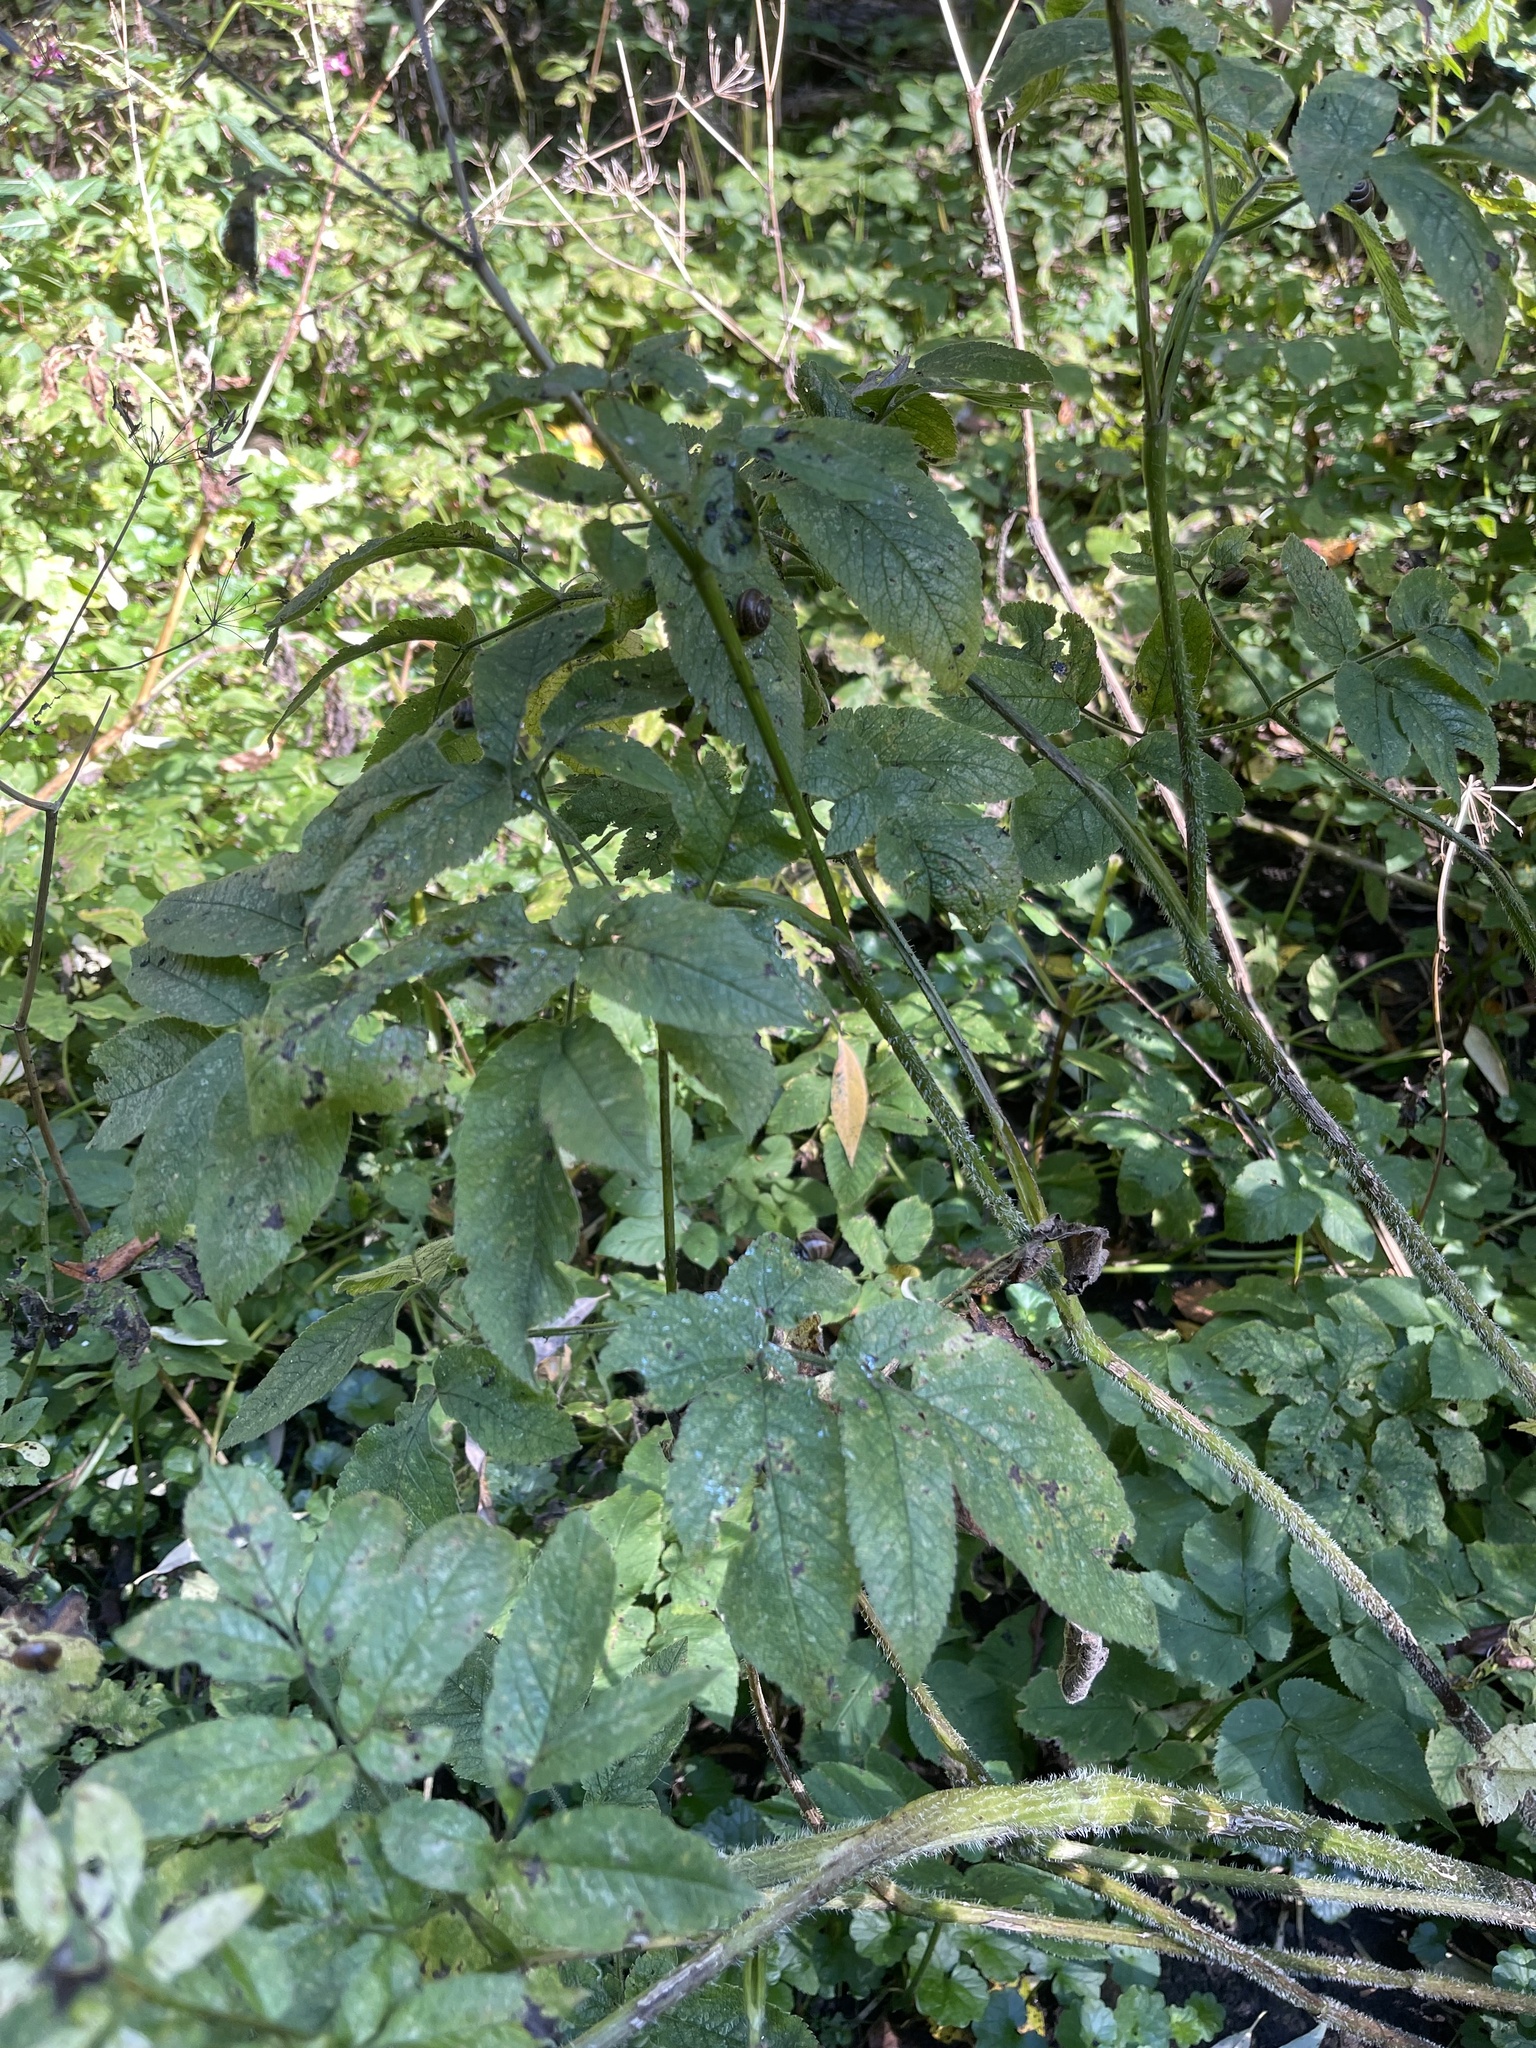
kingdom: Plantae
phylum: Tracheophyta
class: Magnoliopsida
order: Apiales
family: Apiaceae
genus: Chaerophyllum
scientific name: Chaerophyllum aromaticum
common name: Broadleaf chervil
